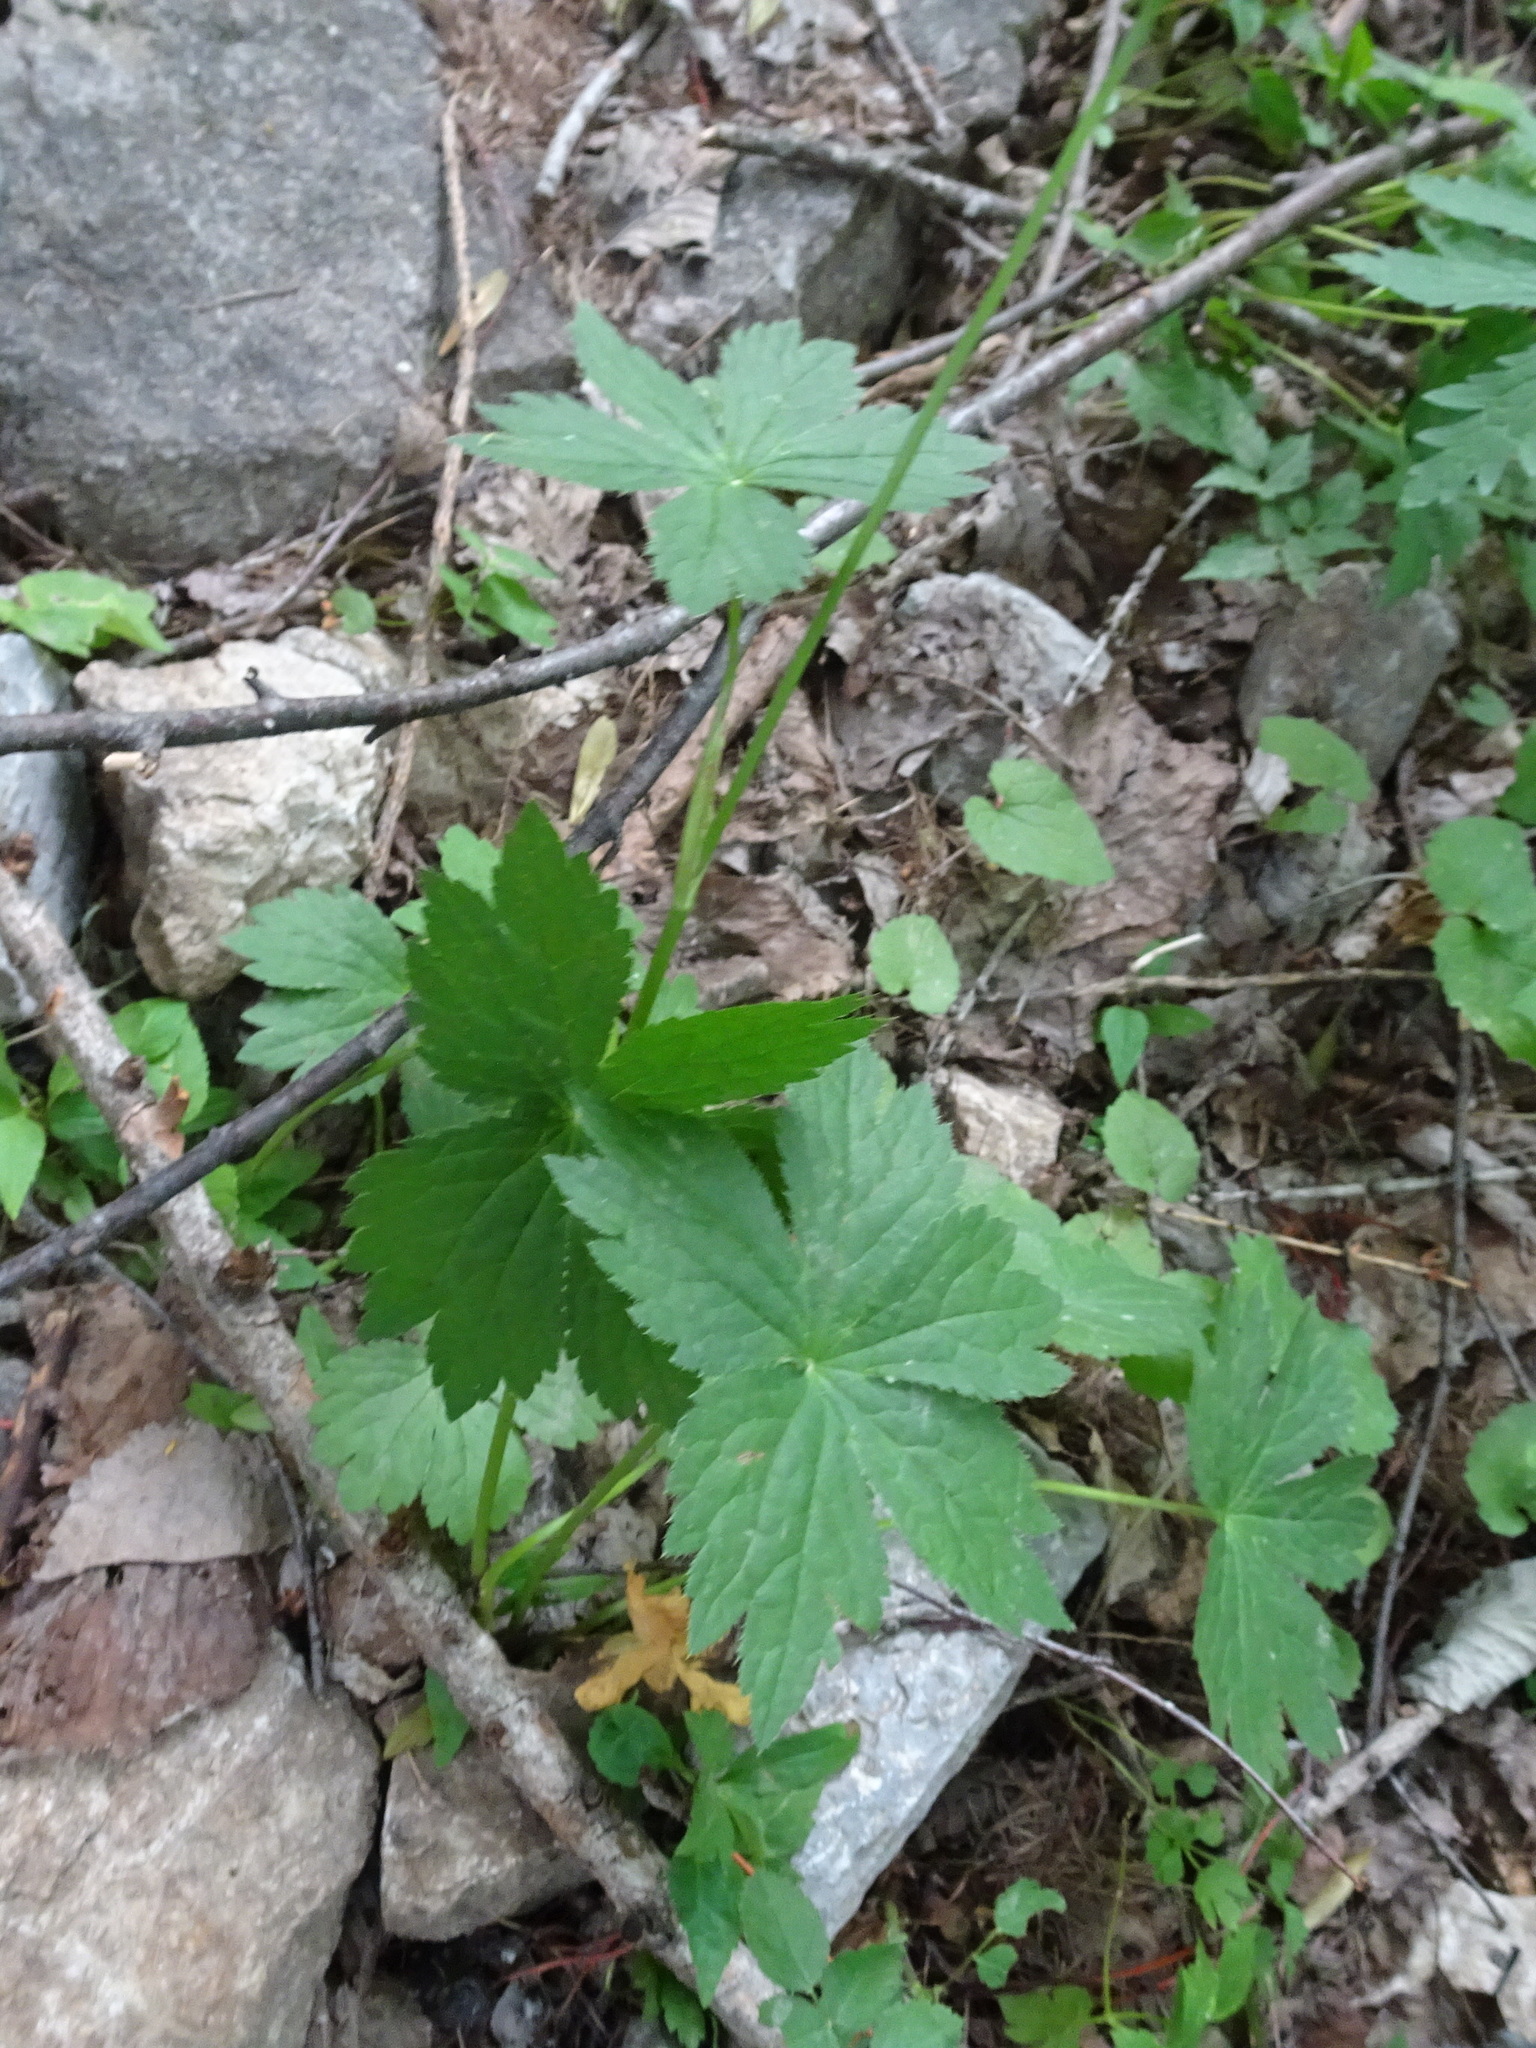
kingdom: Plantae
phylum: Tracheophyta
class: Magnoliopsida
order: Apiales
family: Apiaceae
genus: Astrantia
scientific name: Astrantia major
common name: Greater masterwort
